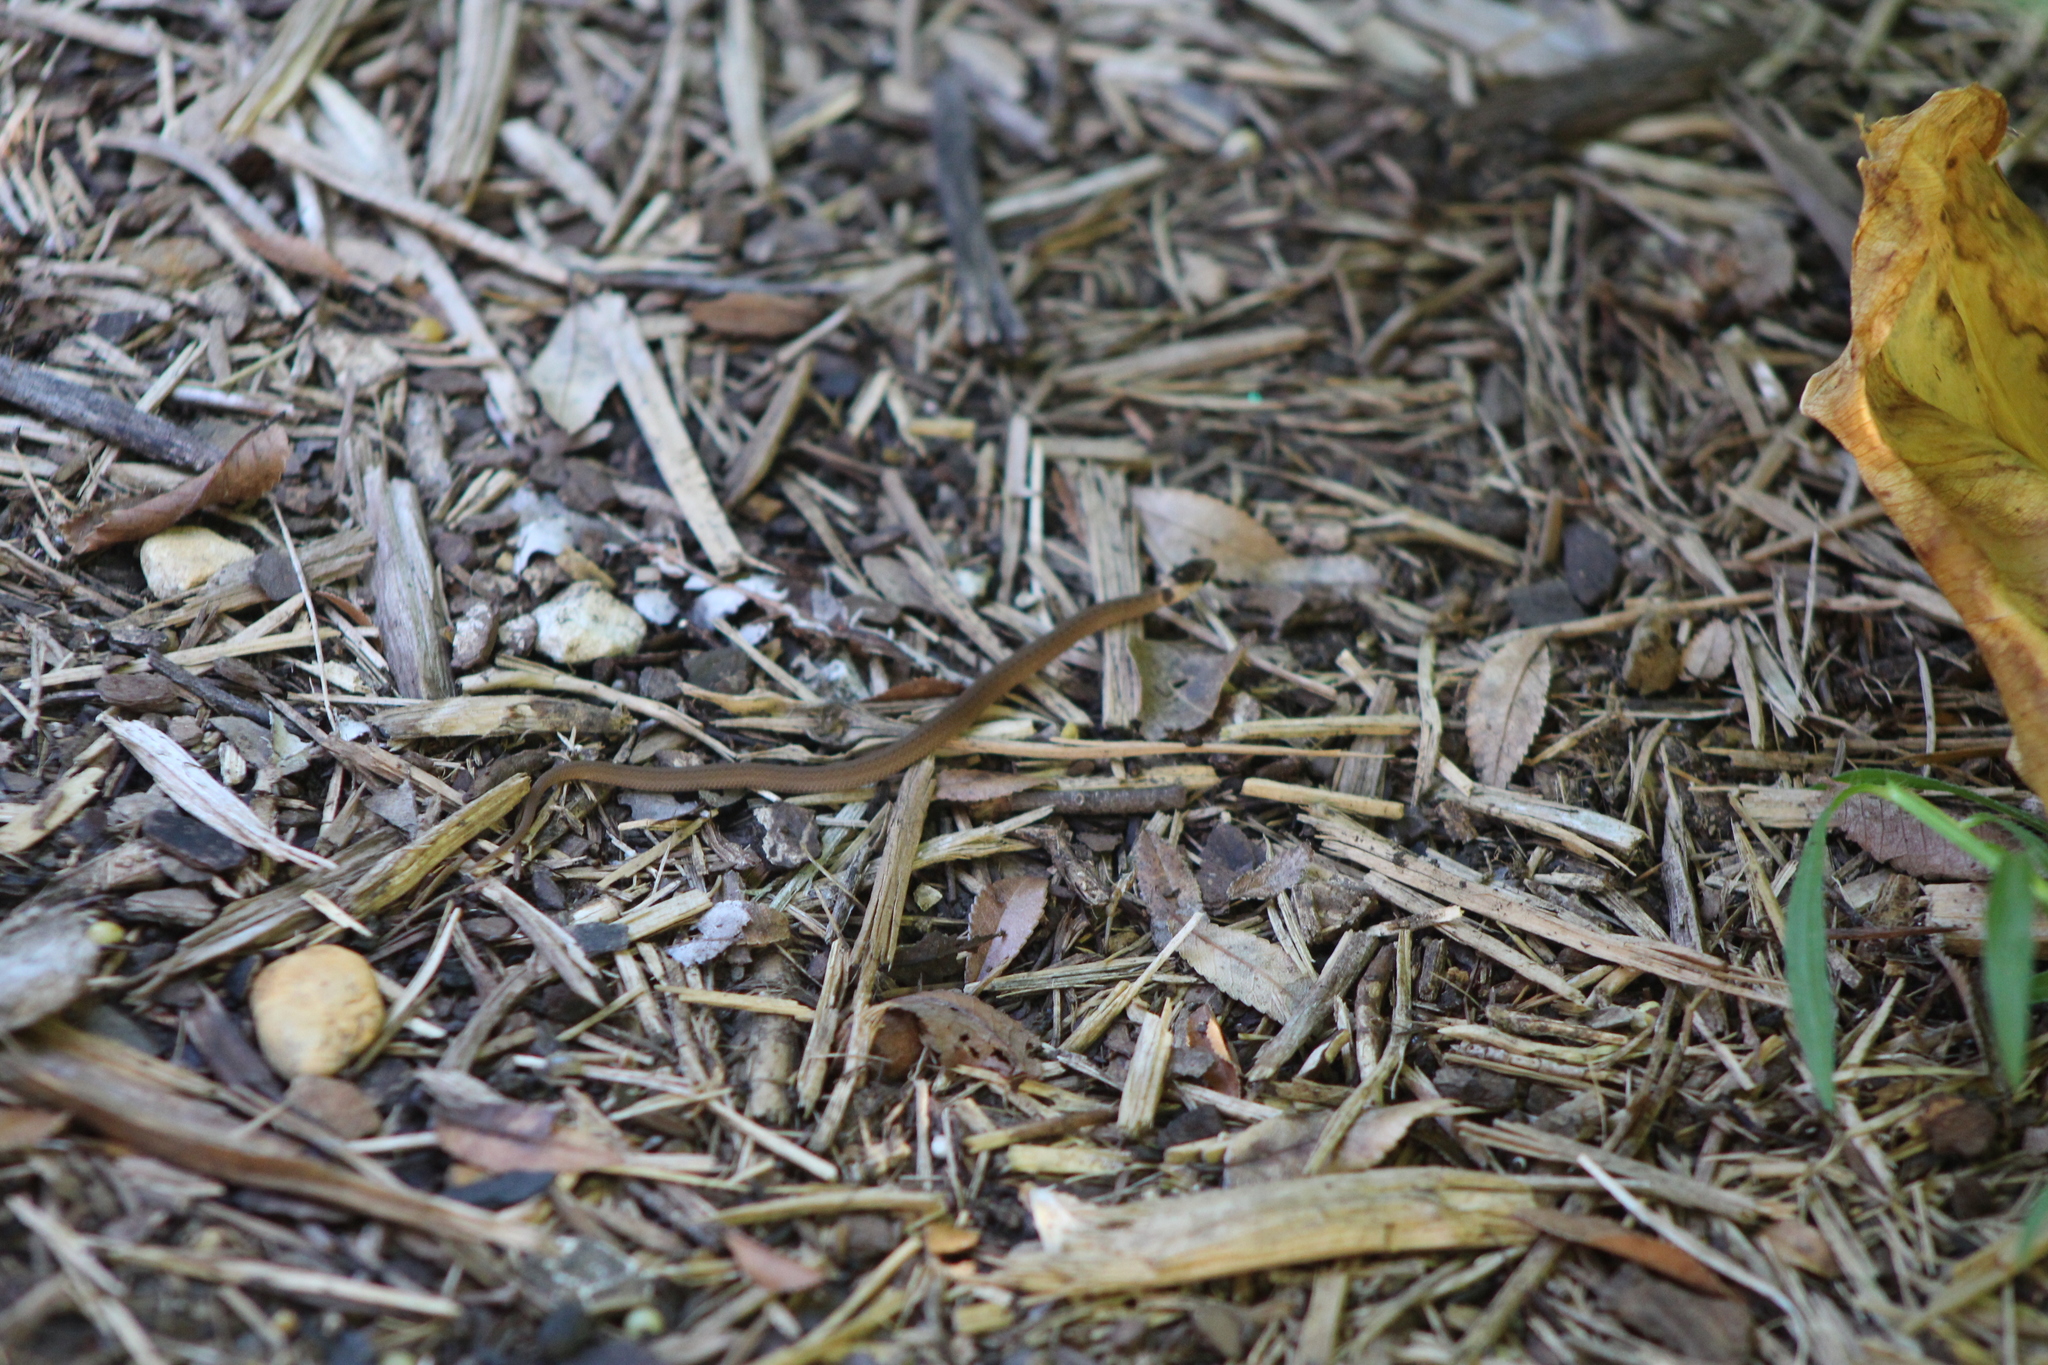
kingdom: Animalia
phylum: Chordata
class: Squamata
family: Colubridae
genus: Storeria
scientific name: Storeria dekayi
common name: (dekay’s) brown snake
